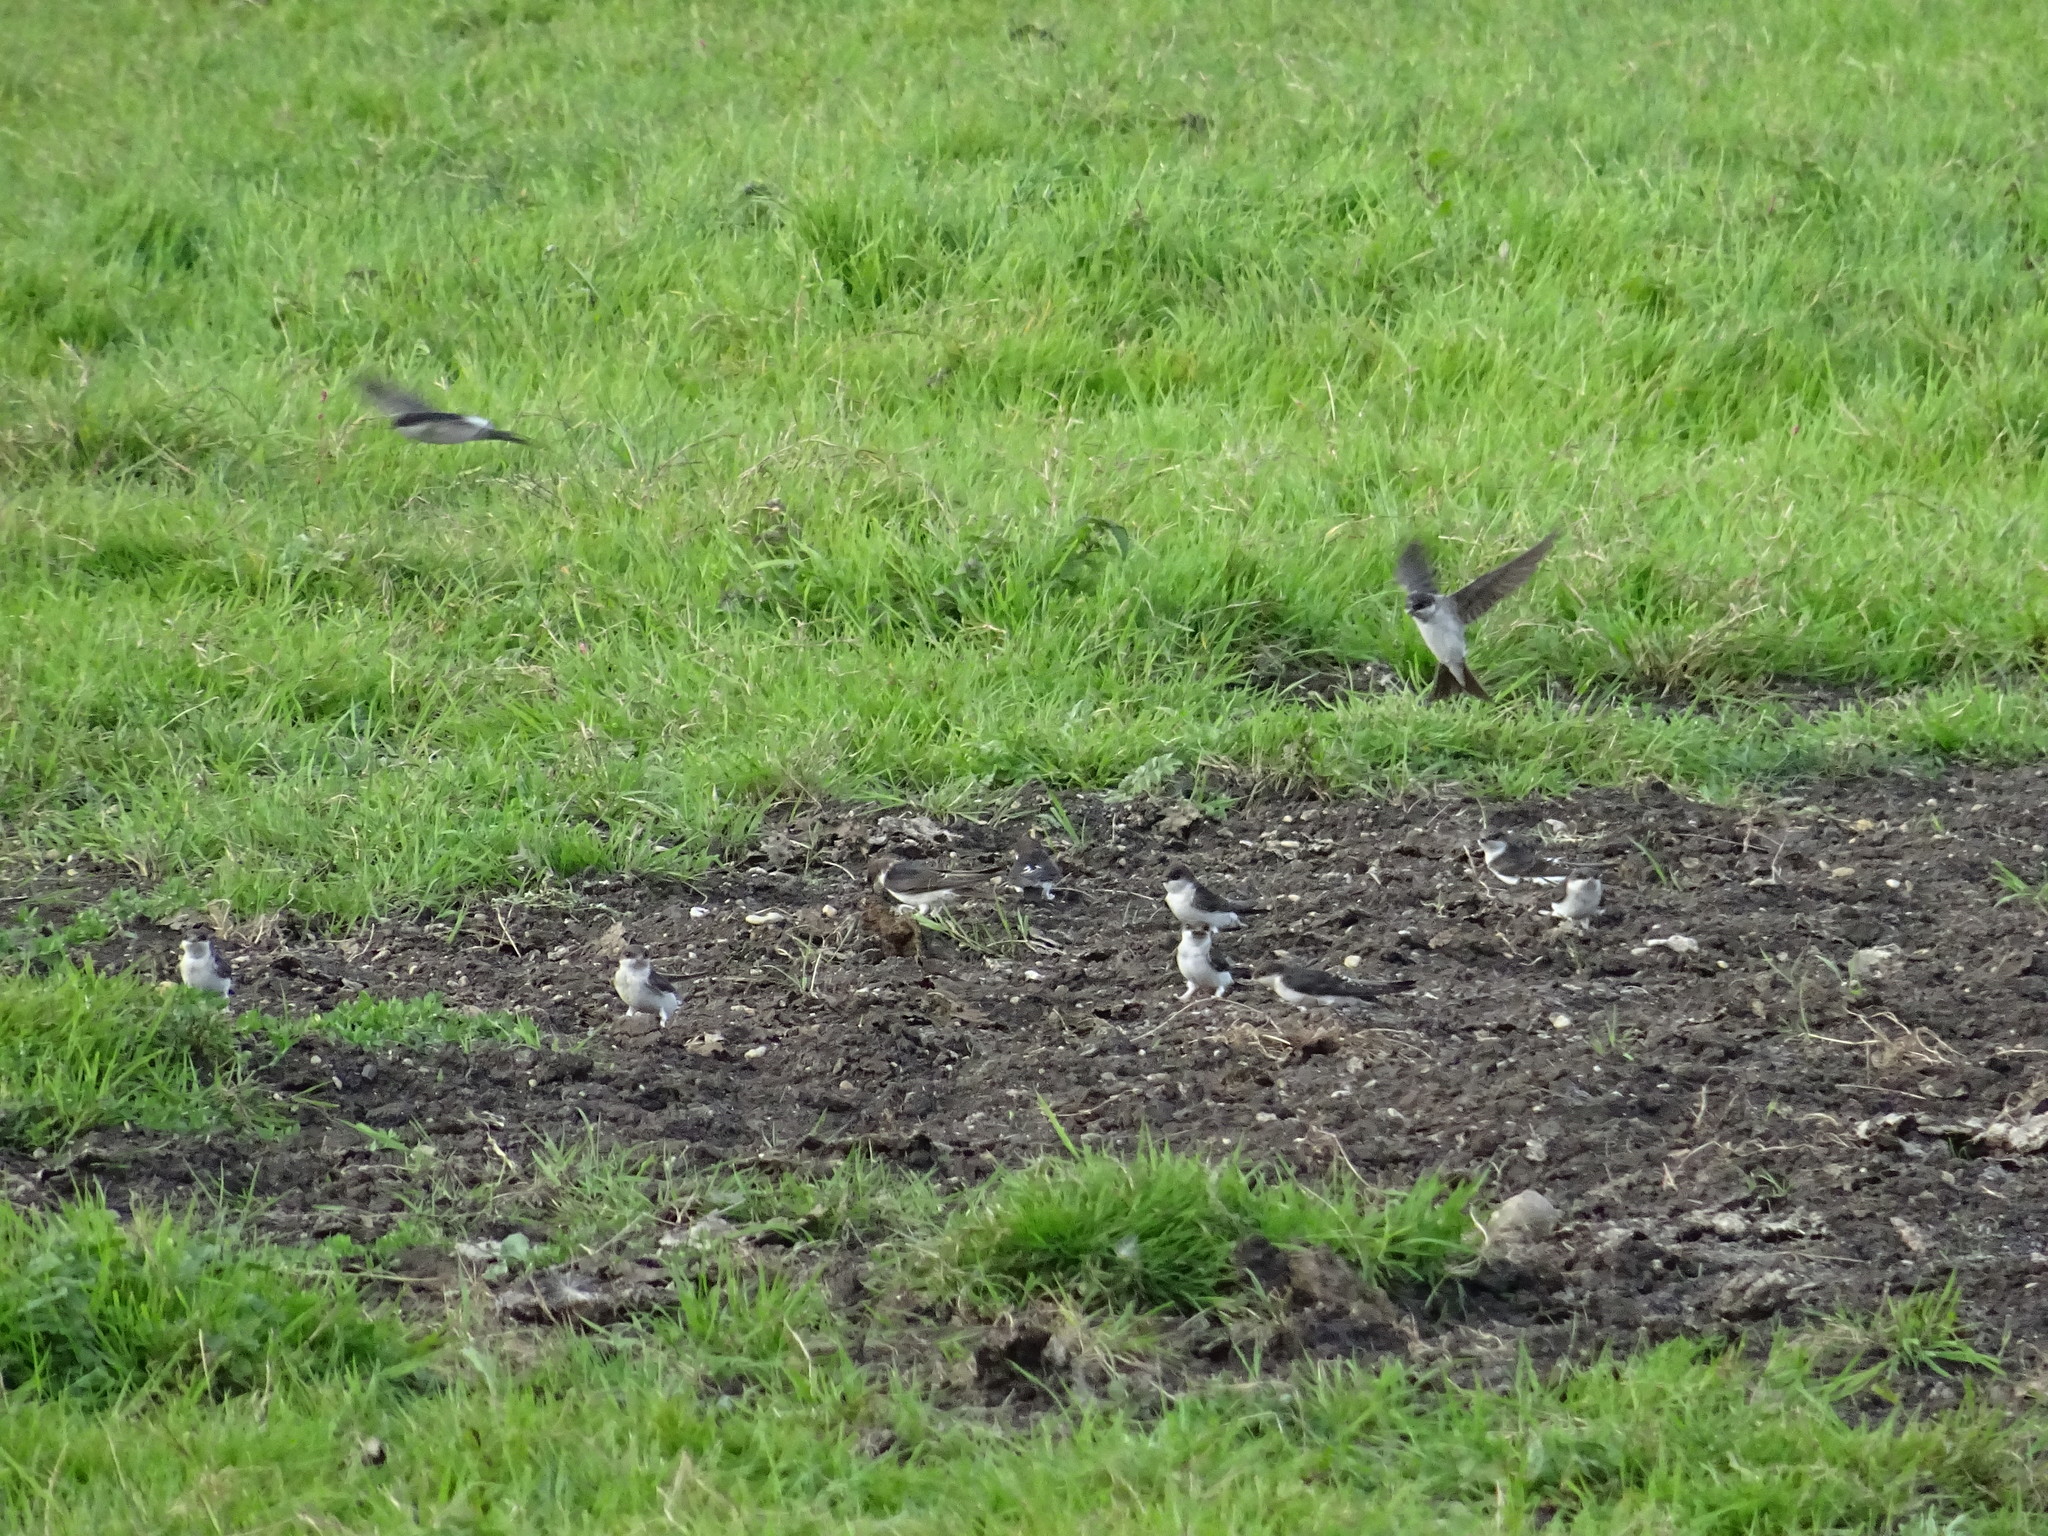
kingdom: Animalia
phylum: Chordata
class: Aves
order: Passeriformes
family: Hirundinidae
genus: Delichon
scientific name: Delichon urbicum
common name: Common house martin
